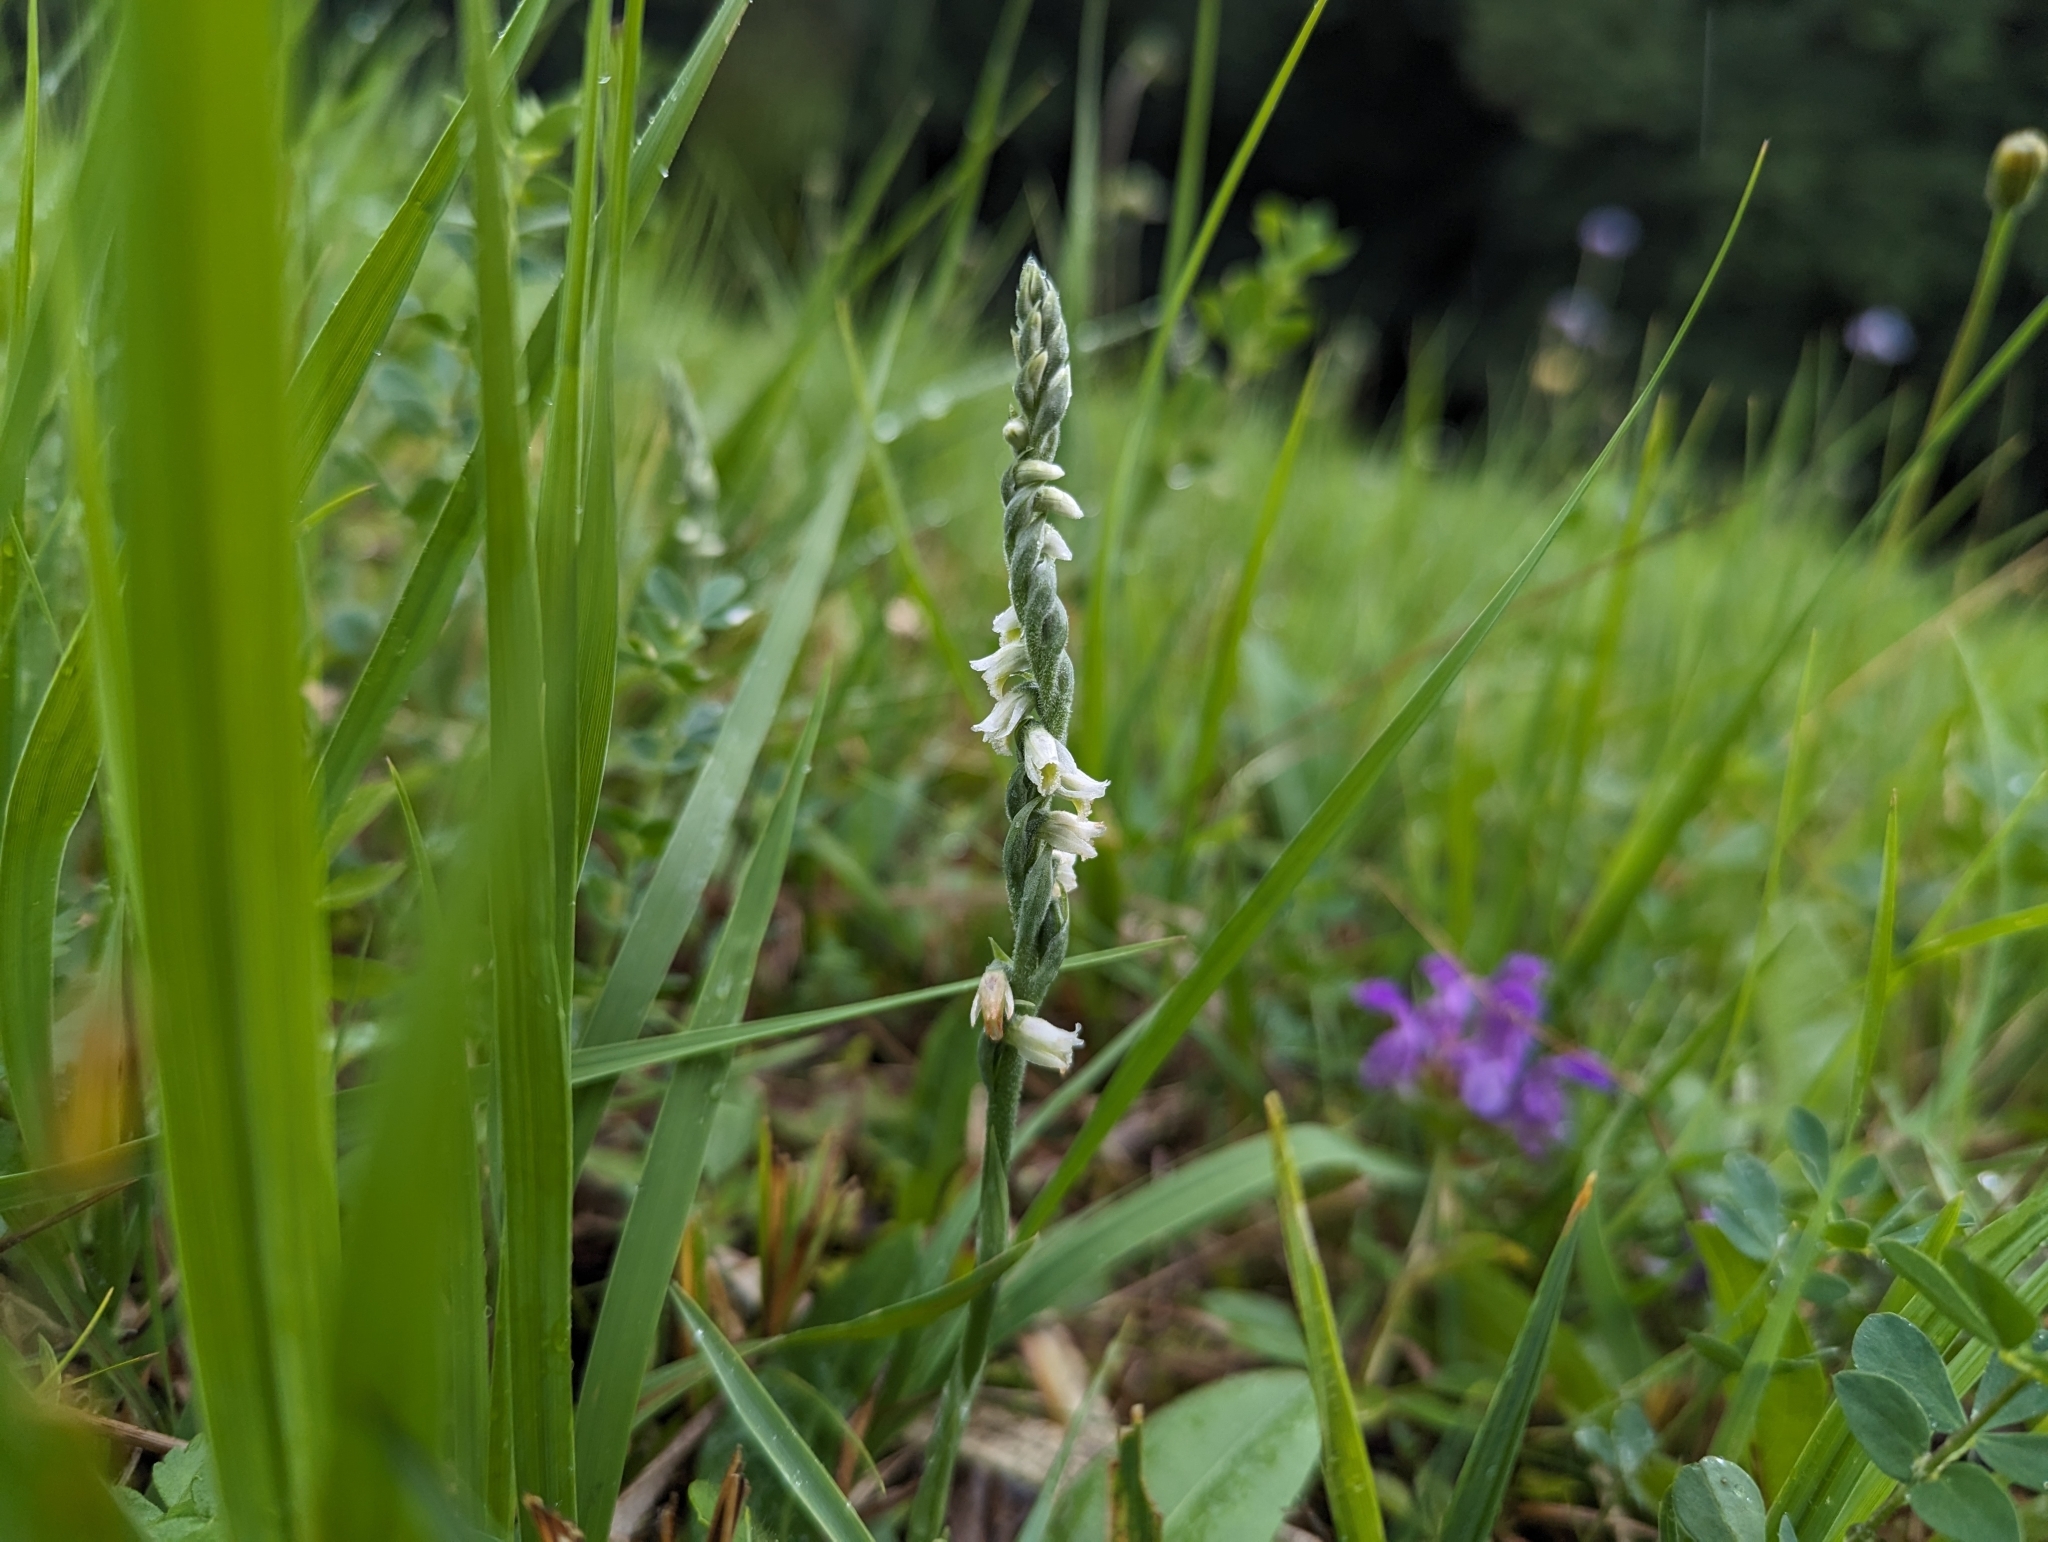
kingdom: Plantae
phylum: Tracheophyta
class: Liliopsida
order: Asparagales
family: Orchidaceae
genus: Spiranthes
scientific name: Spiranthes spiralis
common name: Autumn lady's-tresses
